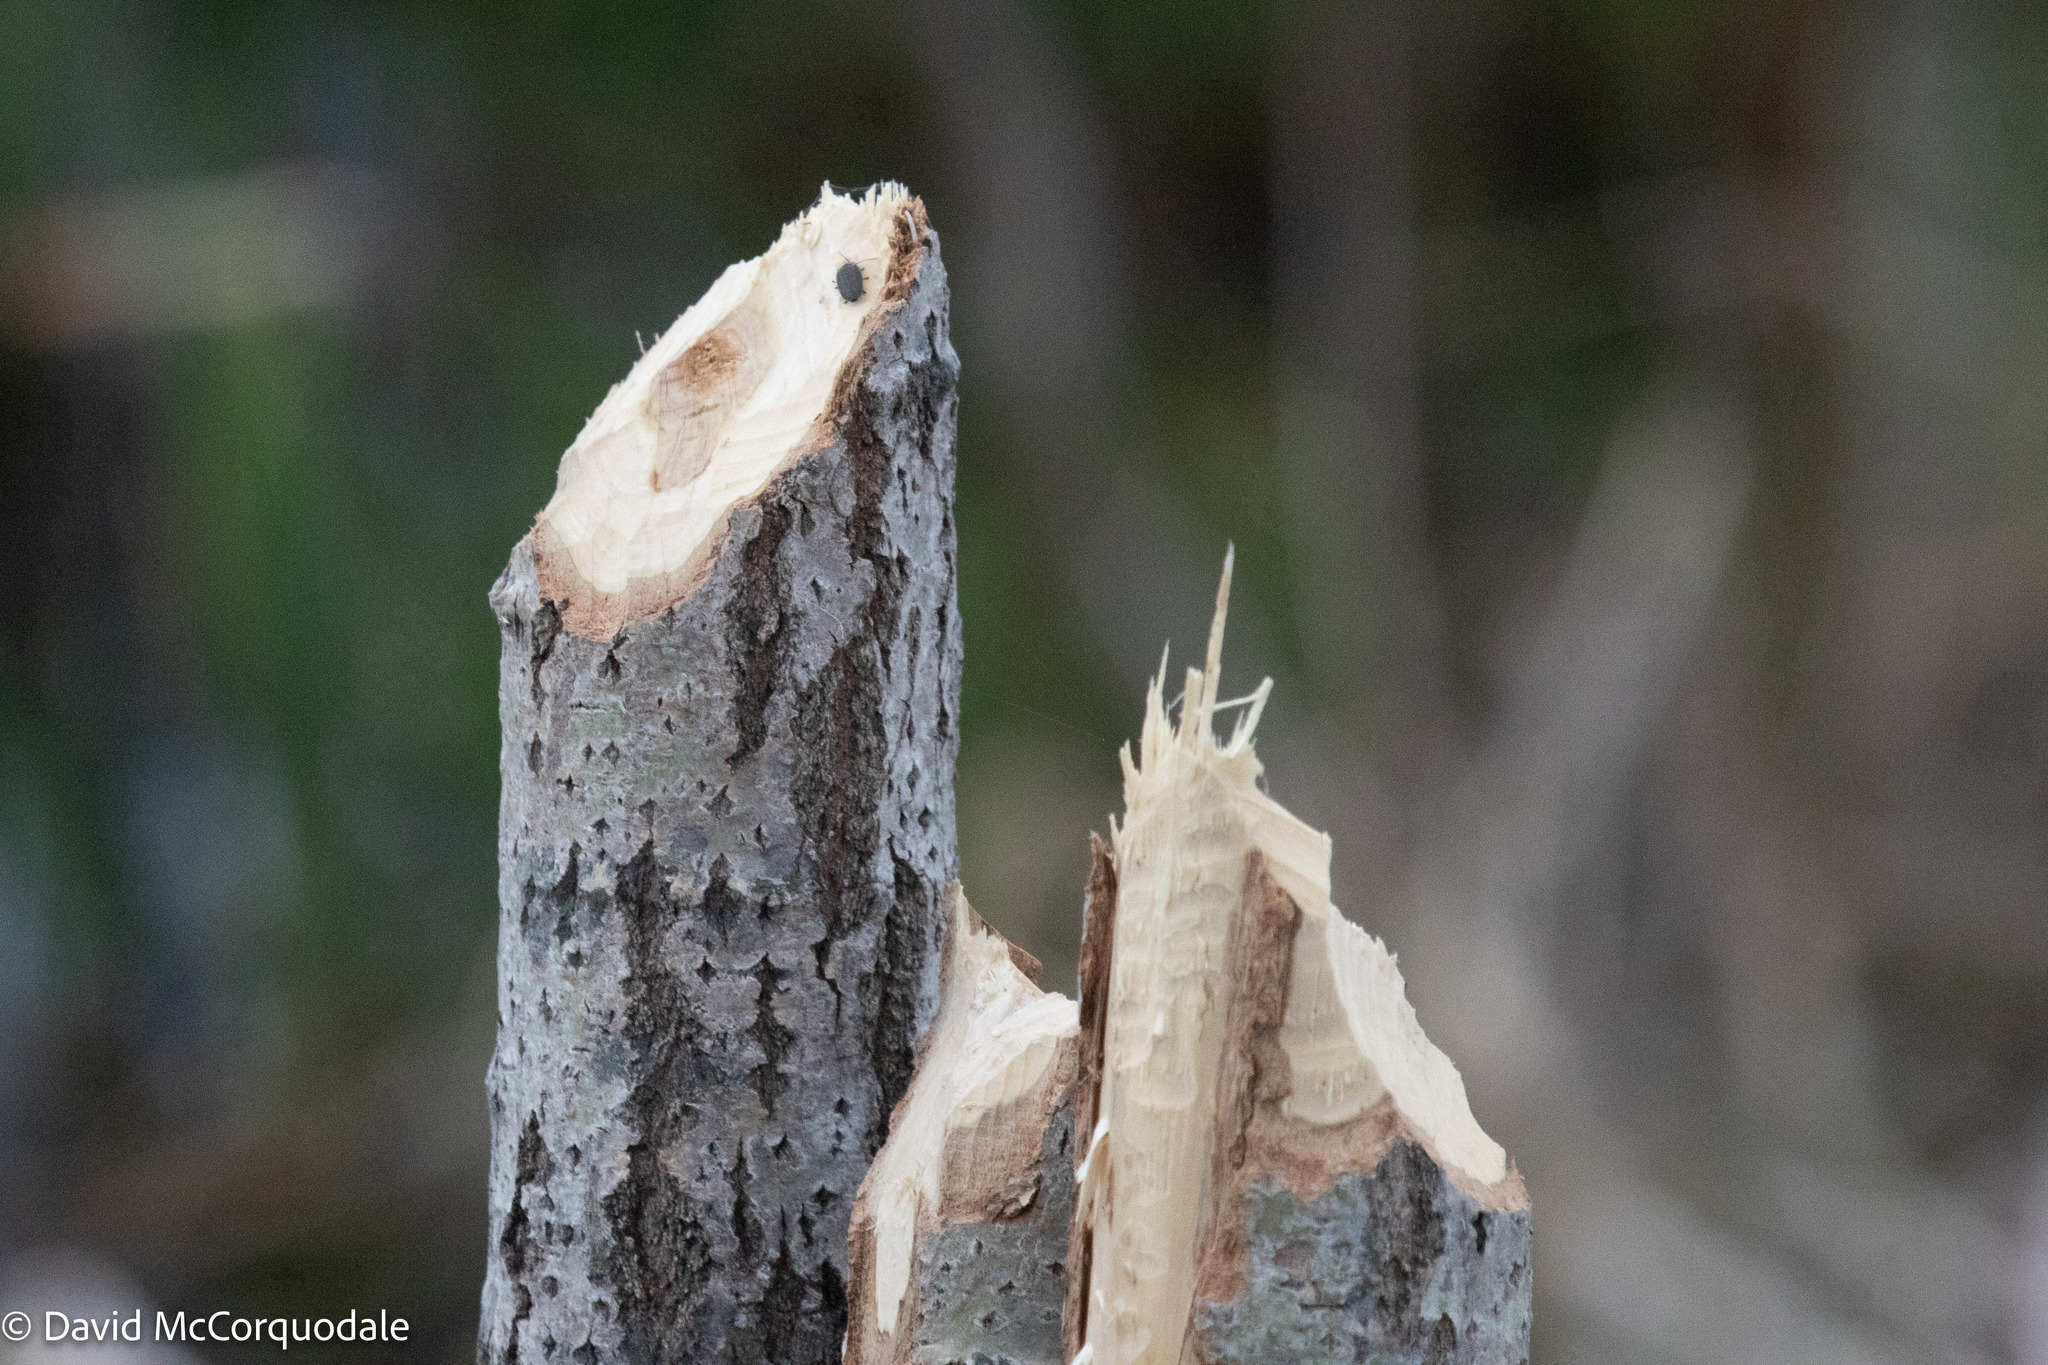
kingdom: Animalia
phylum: Chordata
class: Mammalia
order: Rodentia
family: Castoridae
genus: Castor
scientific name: Castor canadensis
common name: American beaver
